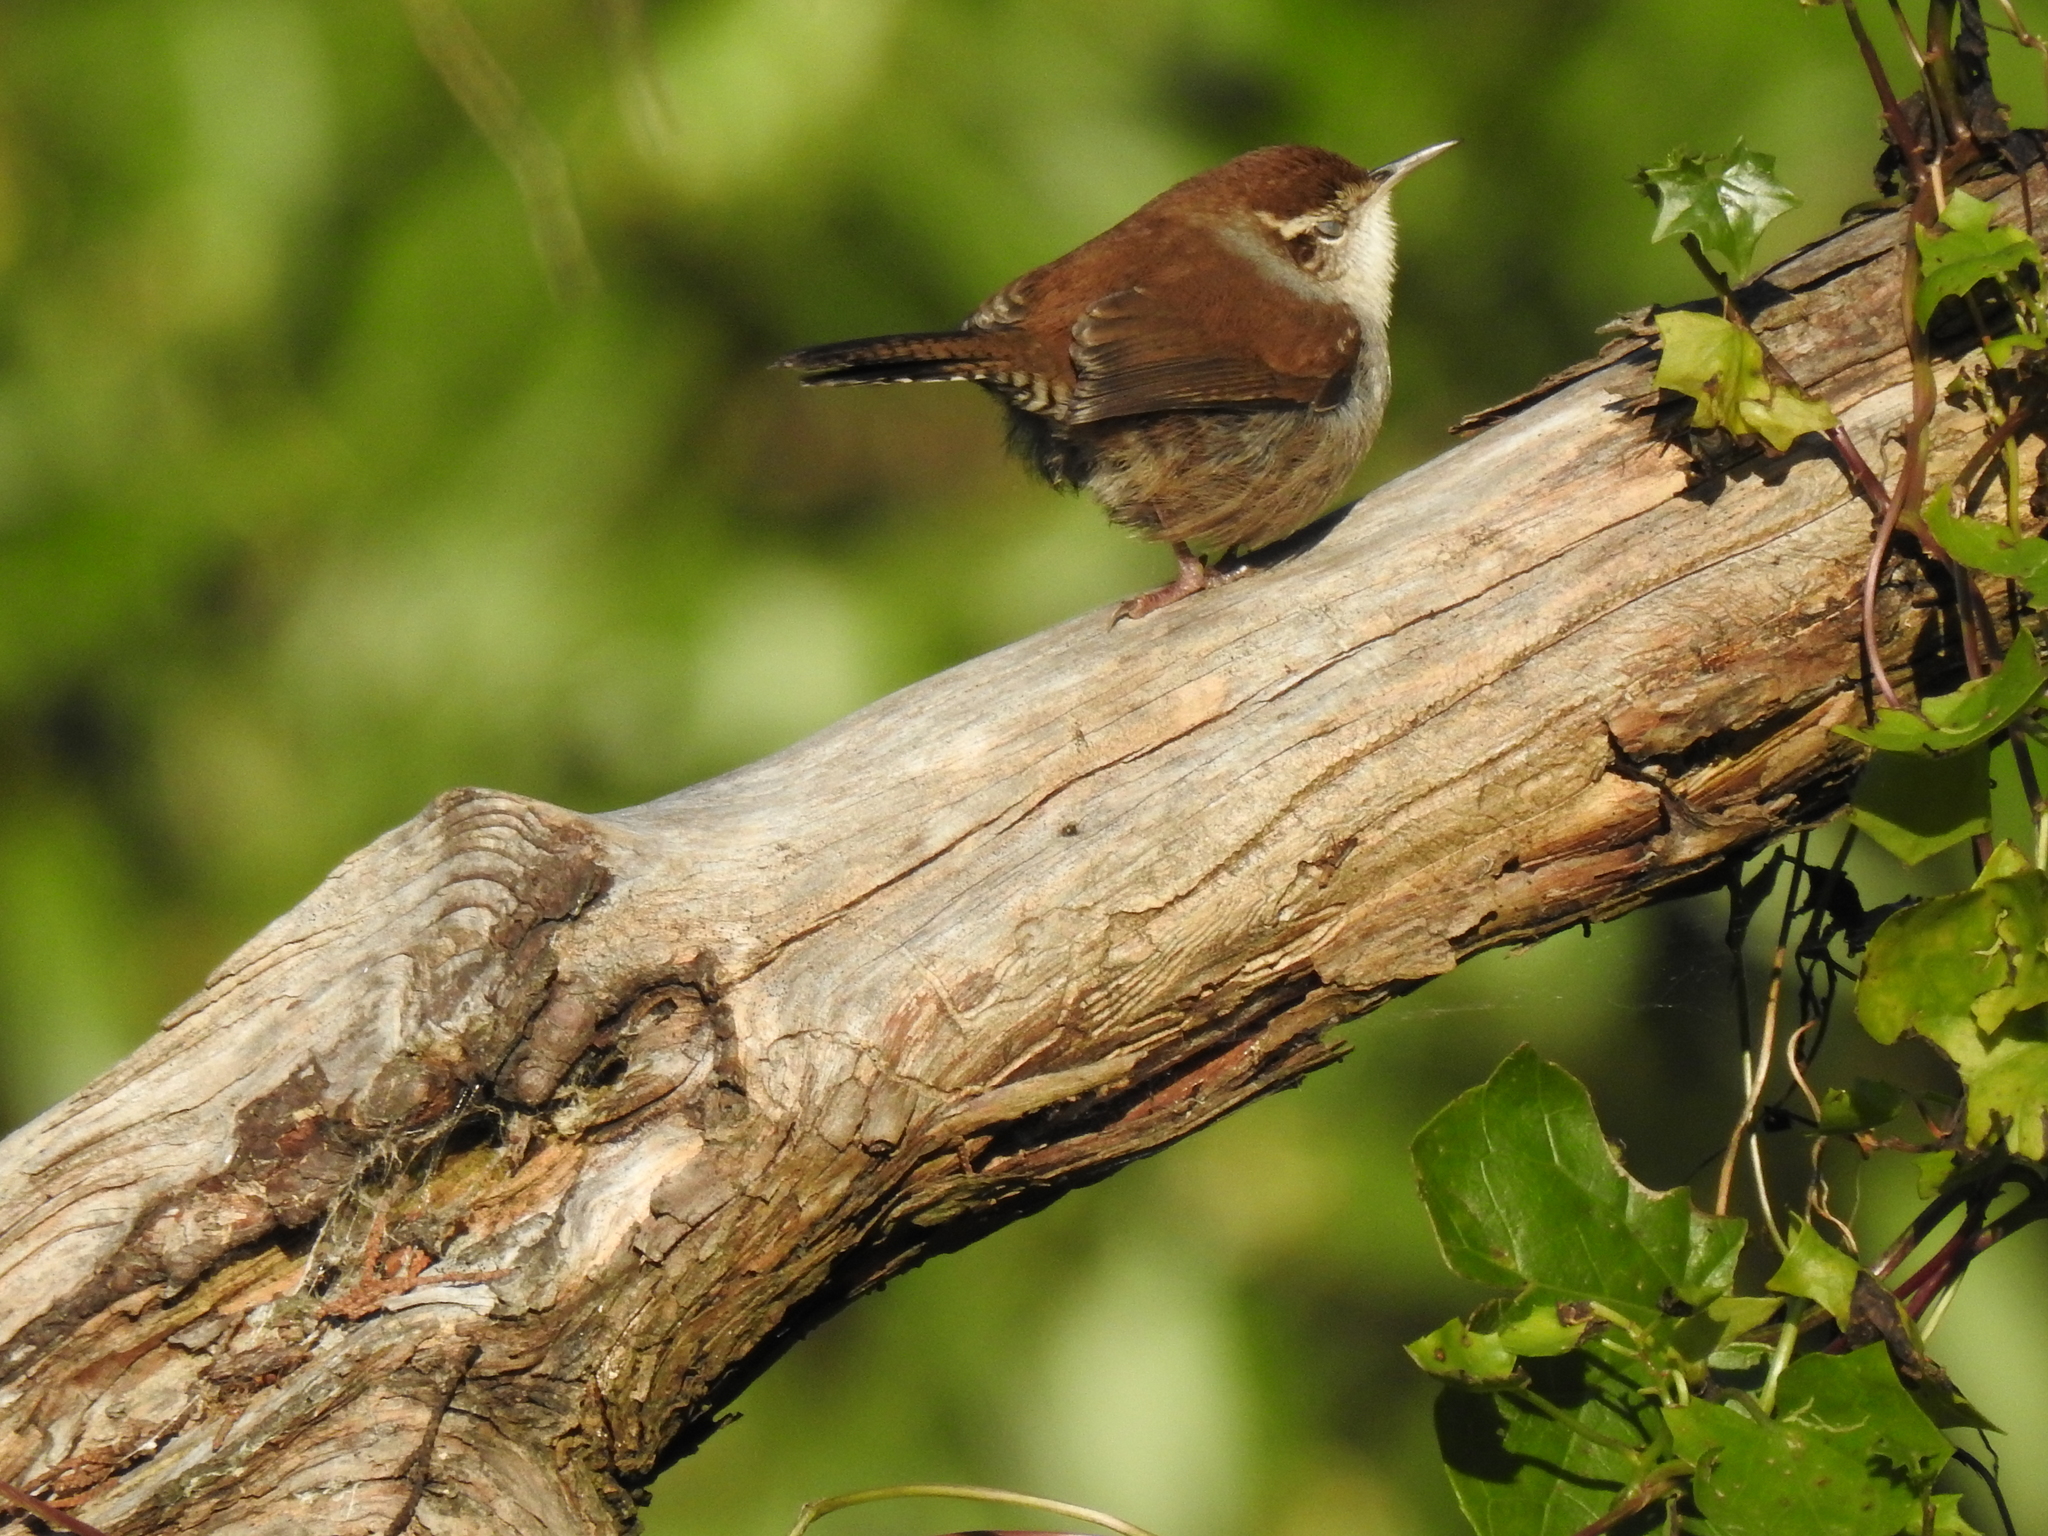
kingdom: Animalia
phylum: Chordata
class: Aves
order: Passeriformes
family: Troglodytidae
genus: Thryomanes
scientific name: Thryomanes bewickii
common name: Bewick's wren
